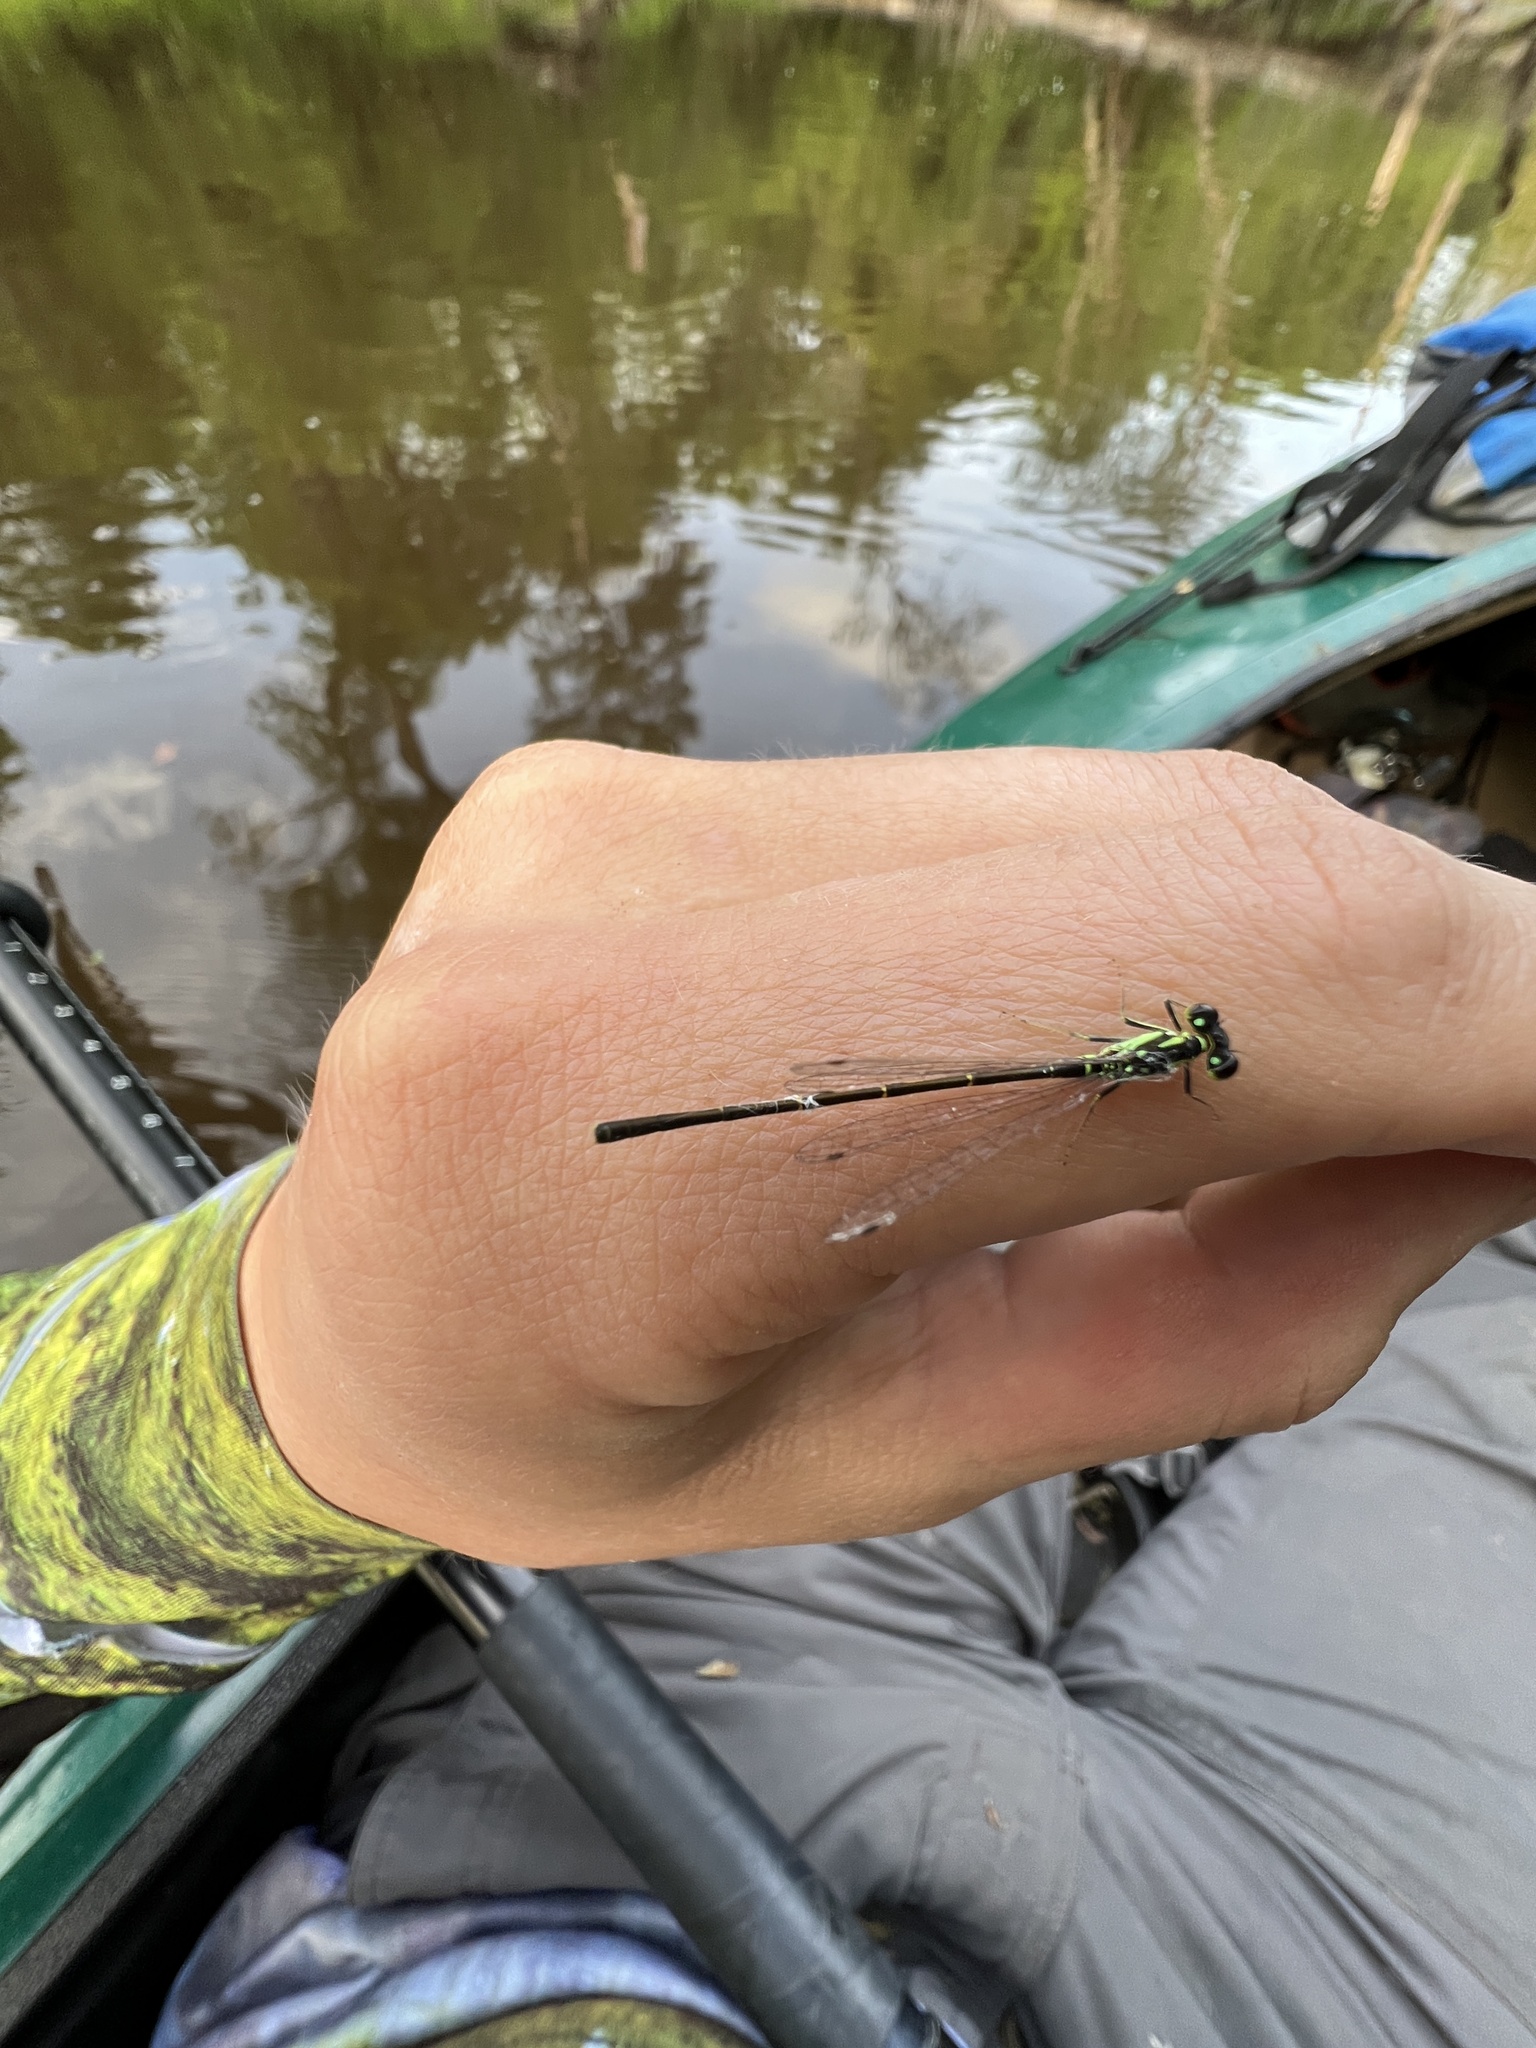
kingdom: Animalia
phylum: Arthropoda
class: Insecta
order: Odonata
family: Coenagrionidae
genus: Ischnura
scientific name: Ischnura posita
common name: Fragile forktail
